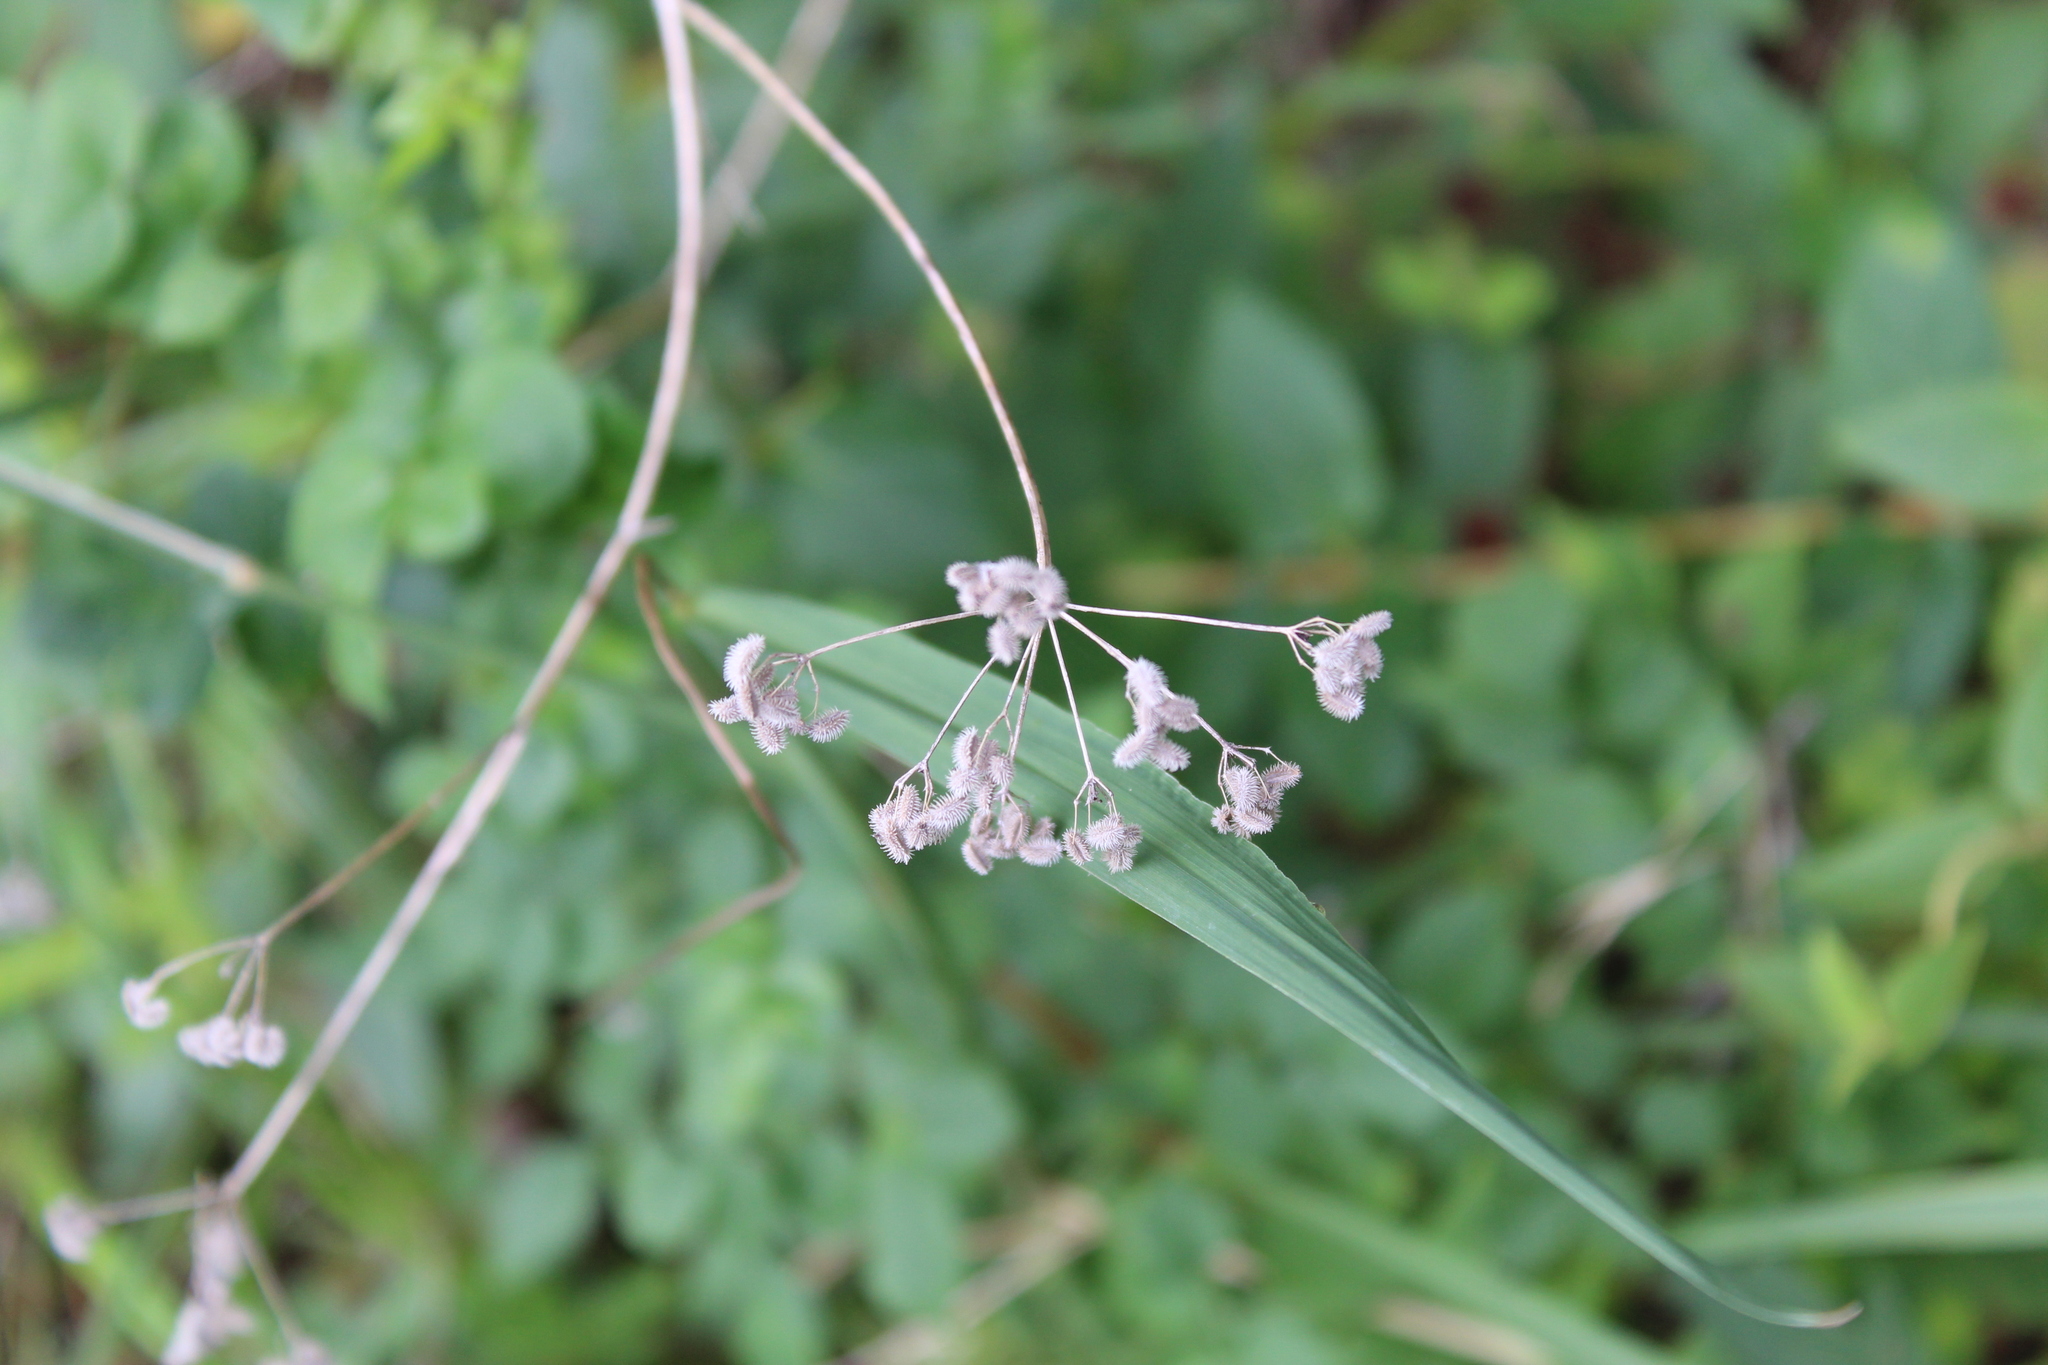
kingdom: Plantae
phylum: Tracheophyta
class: Magnoliopsida
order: Apiales
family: Apiaceae
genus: Torilis
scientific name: Torilis arvensis
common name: Spreading hedge-parsley
